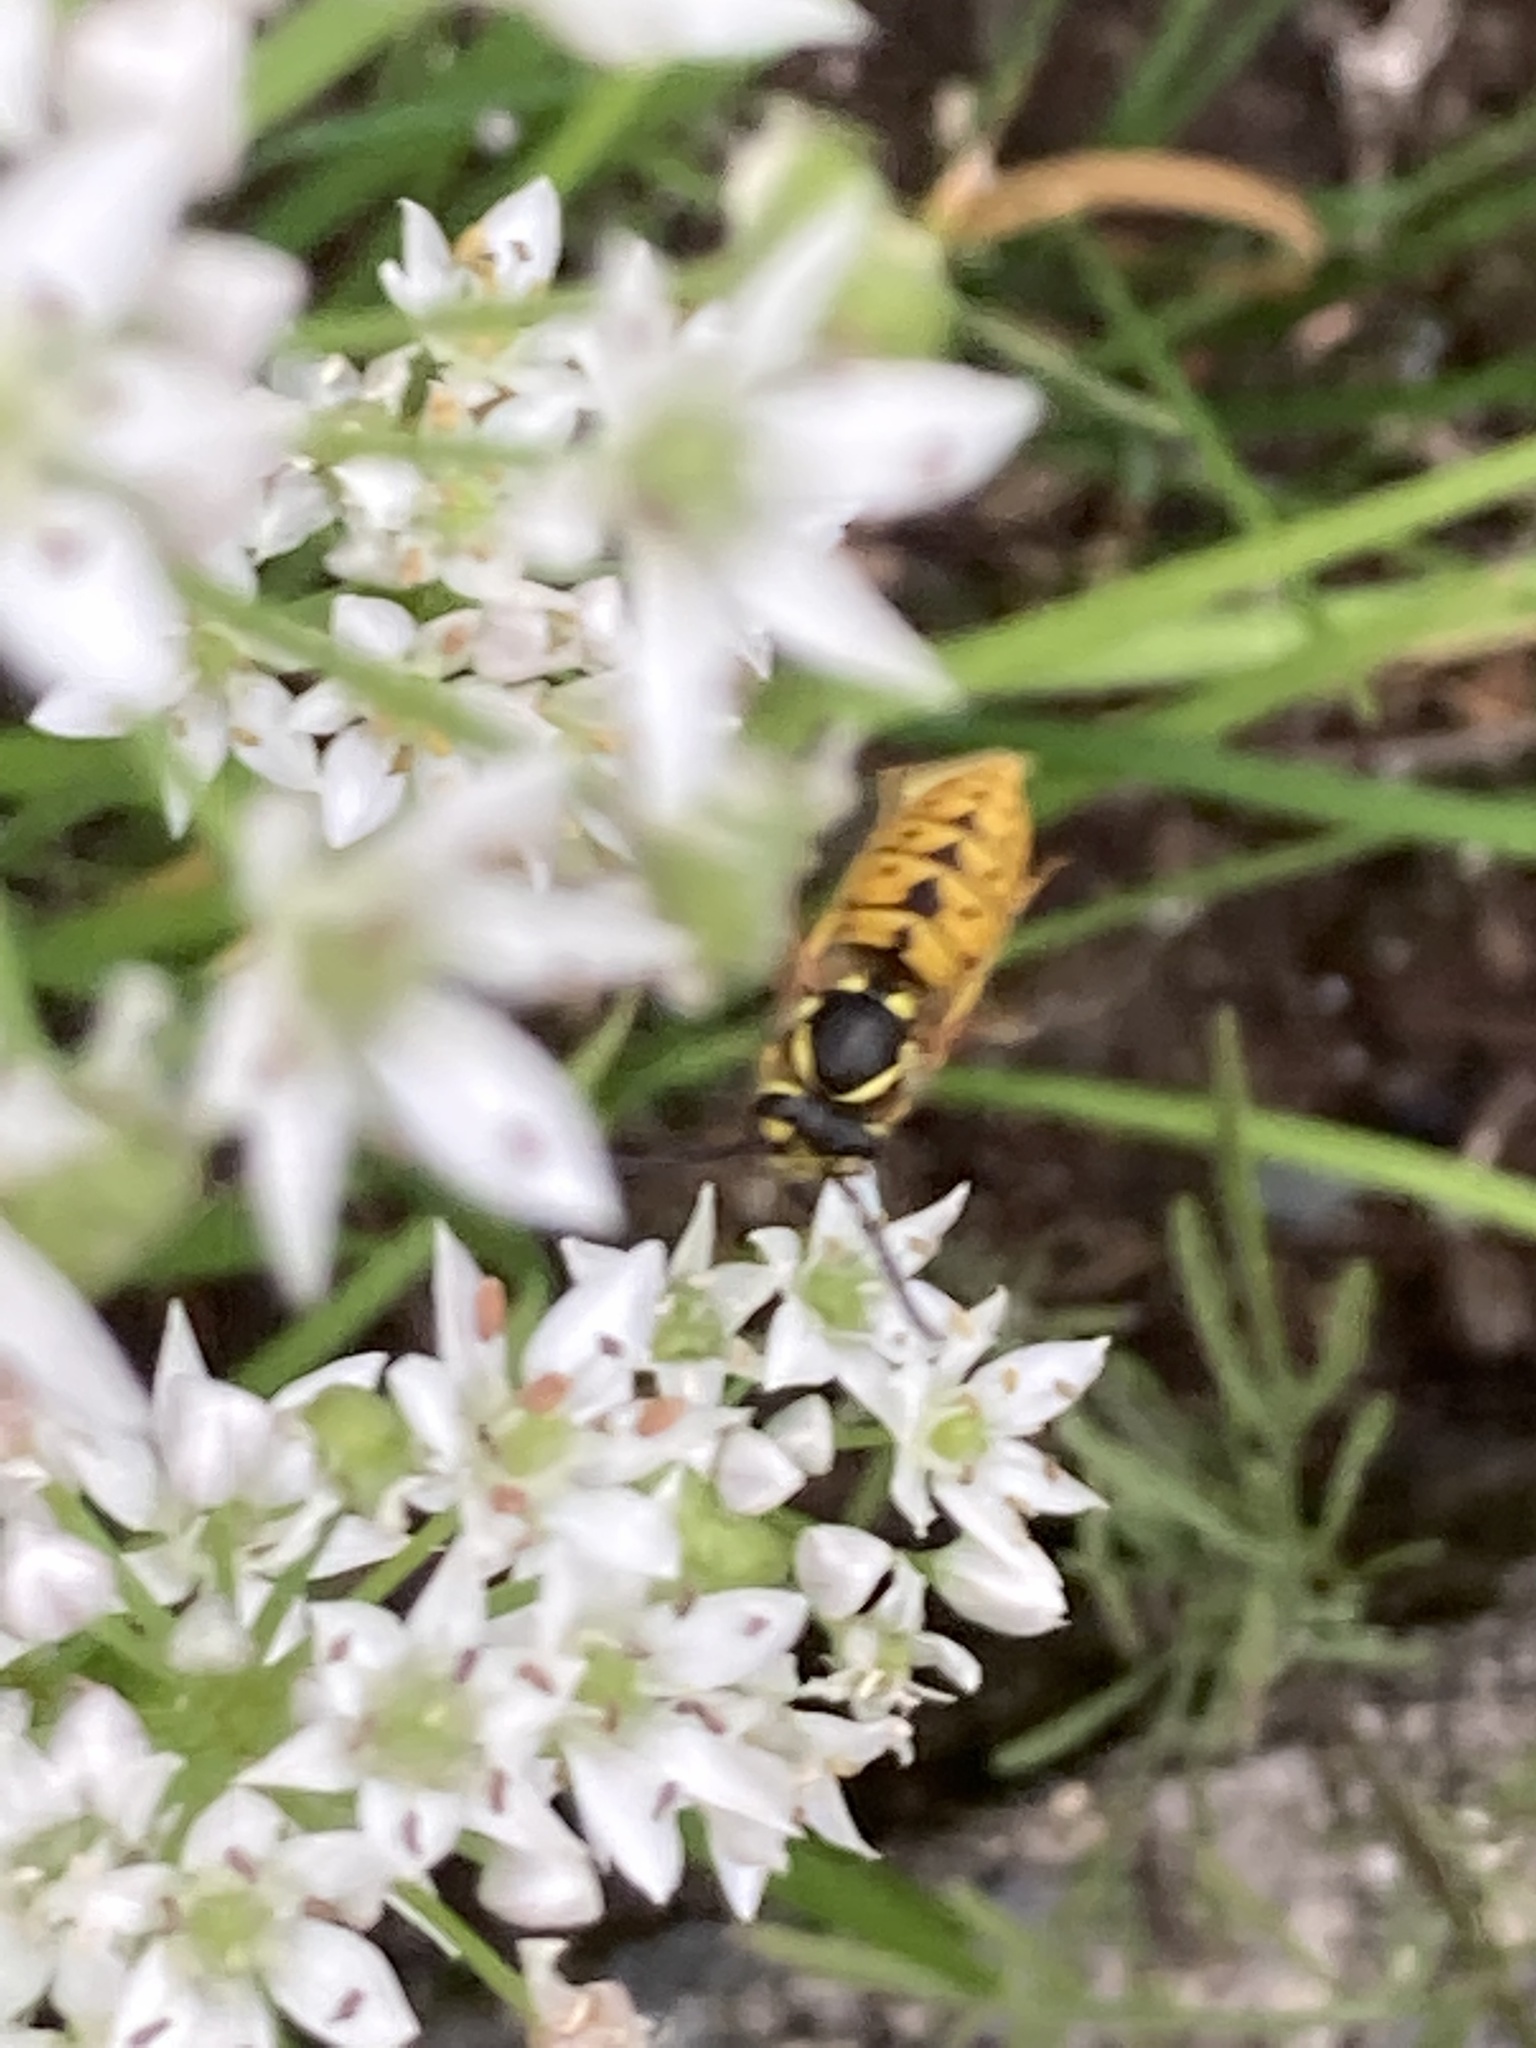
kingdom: Animalia
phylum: Arthropoda
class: Insecta
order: Hymenoptera
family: Vespidae
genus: Vespula
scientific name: Vespula germanica
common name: German wasp
